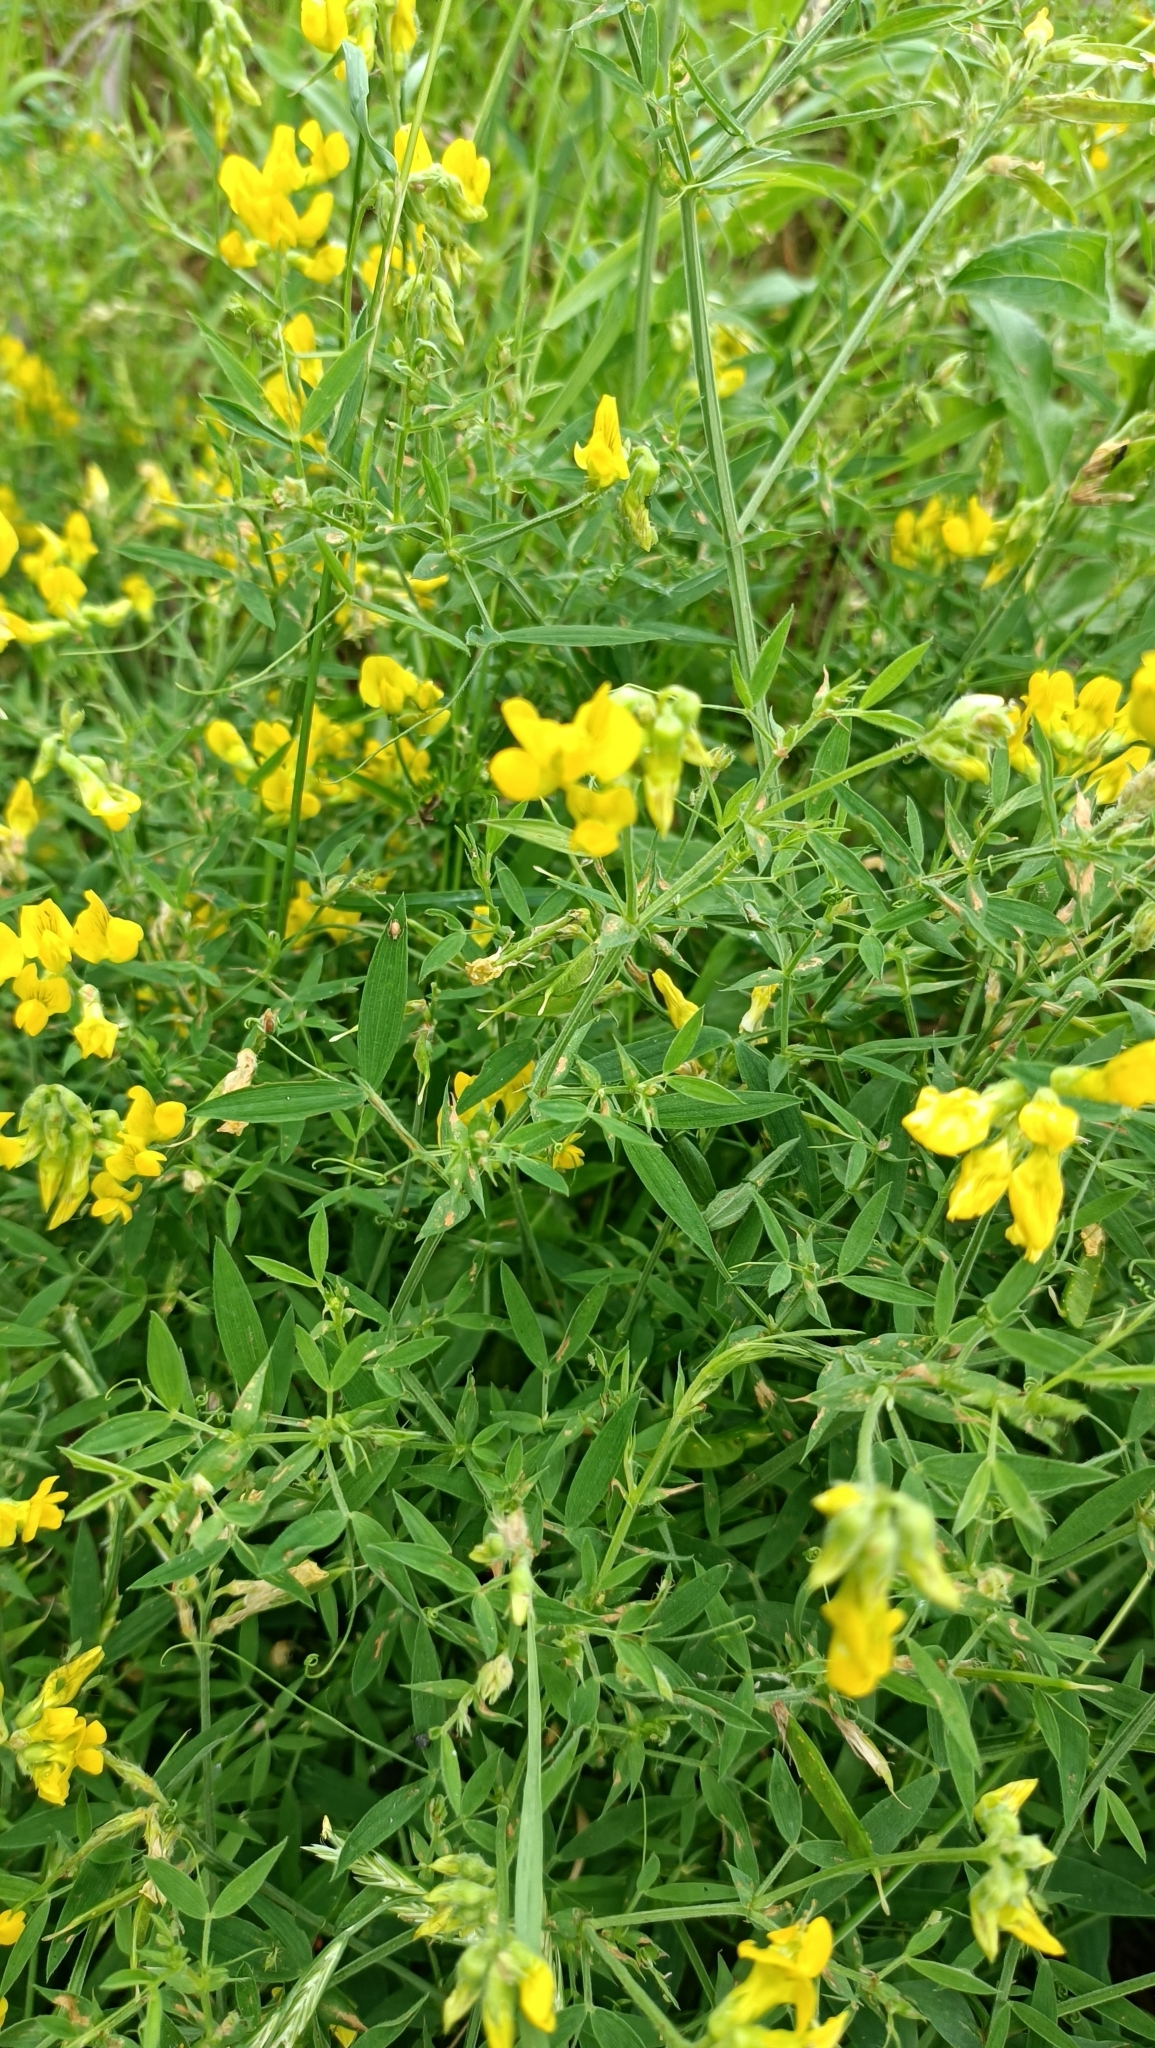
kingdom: Plantae
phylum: Tracheophyta
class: Magnoliopsida
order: Fabales
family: Fabaceae
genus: Lathyrus
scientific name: Lathyrus pratensis
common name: Meadow vetchling
